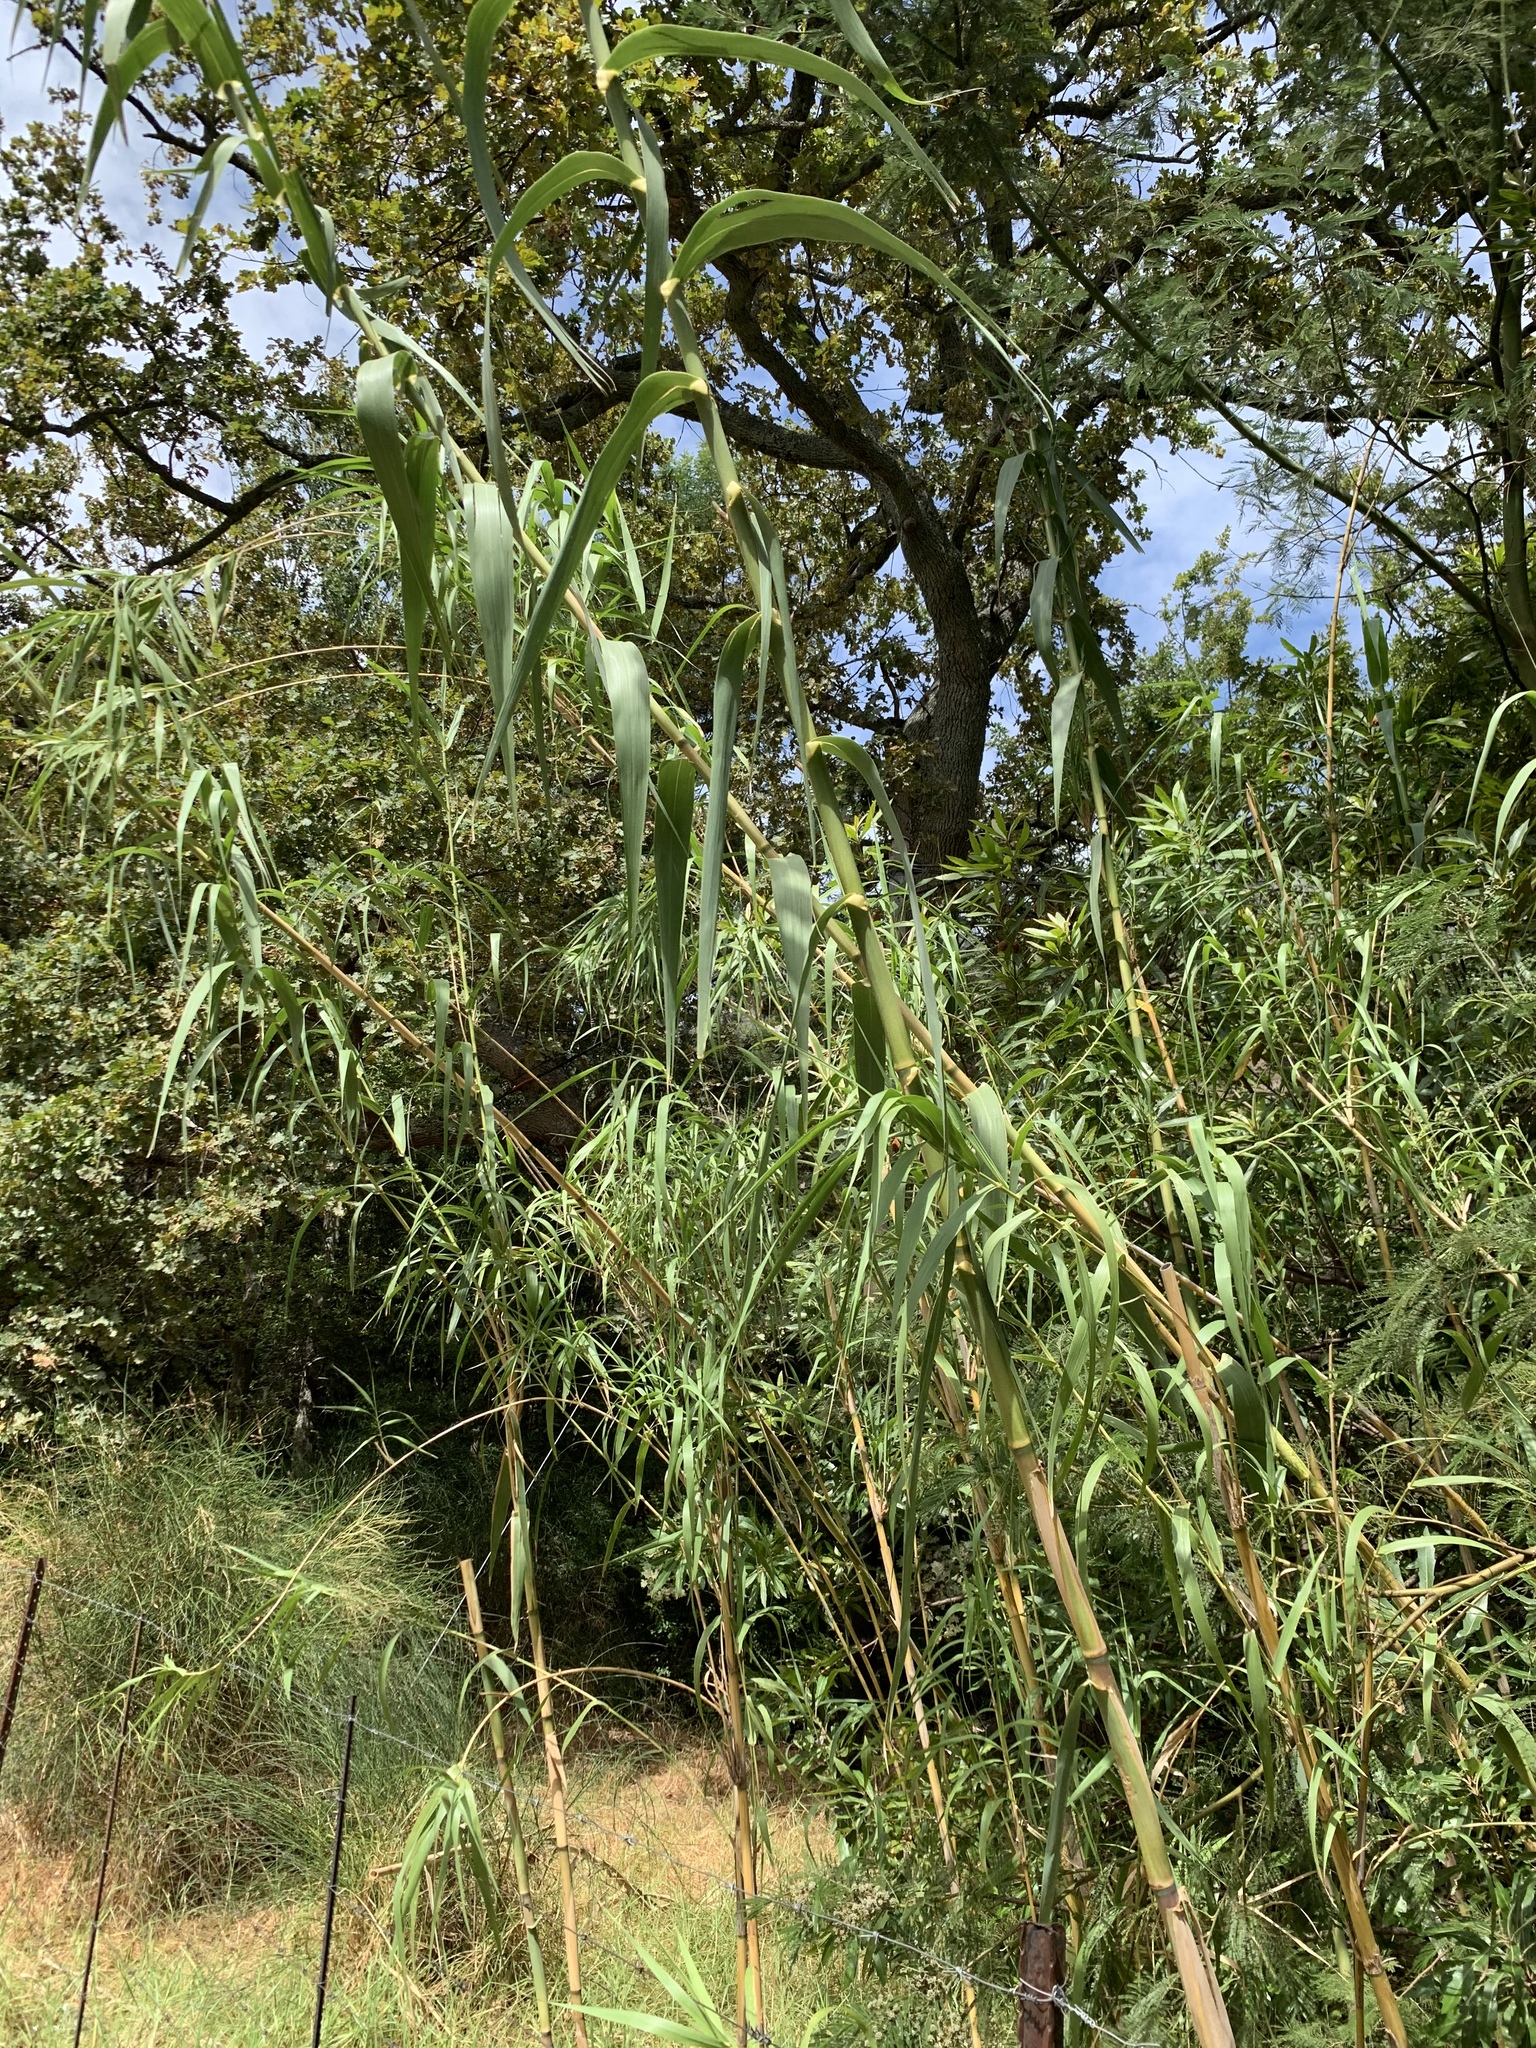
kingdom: Plantae
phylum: Tracheophyta
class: Liliopsida
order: Poales
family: Poaceae
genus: Arundo
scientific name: Arundo donax
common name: Giant reed
